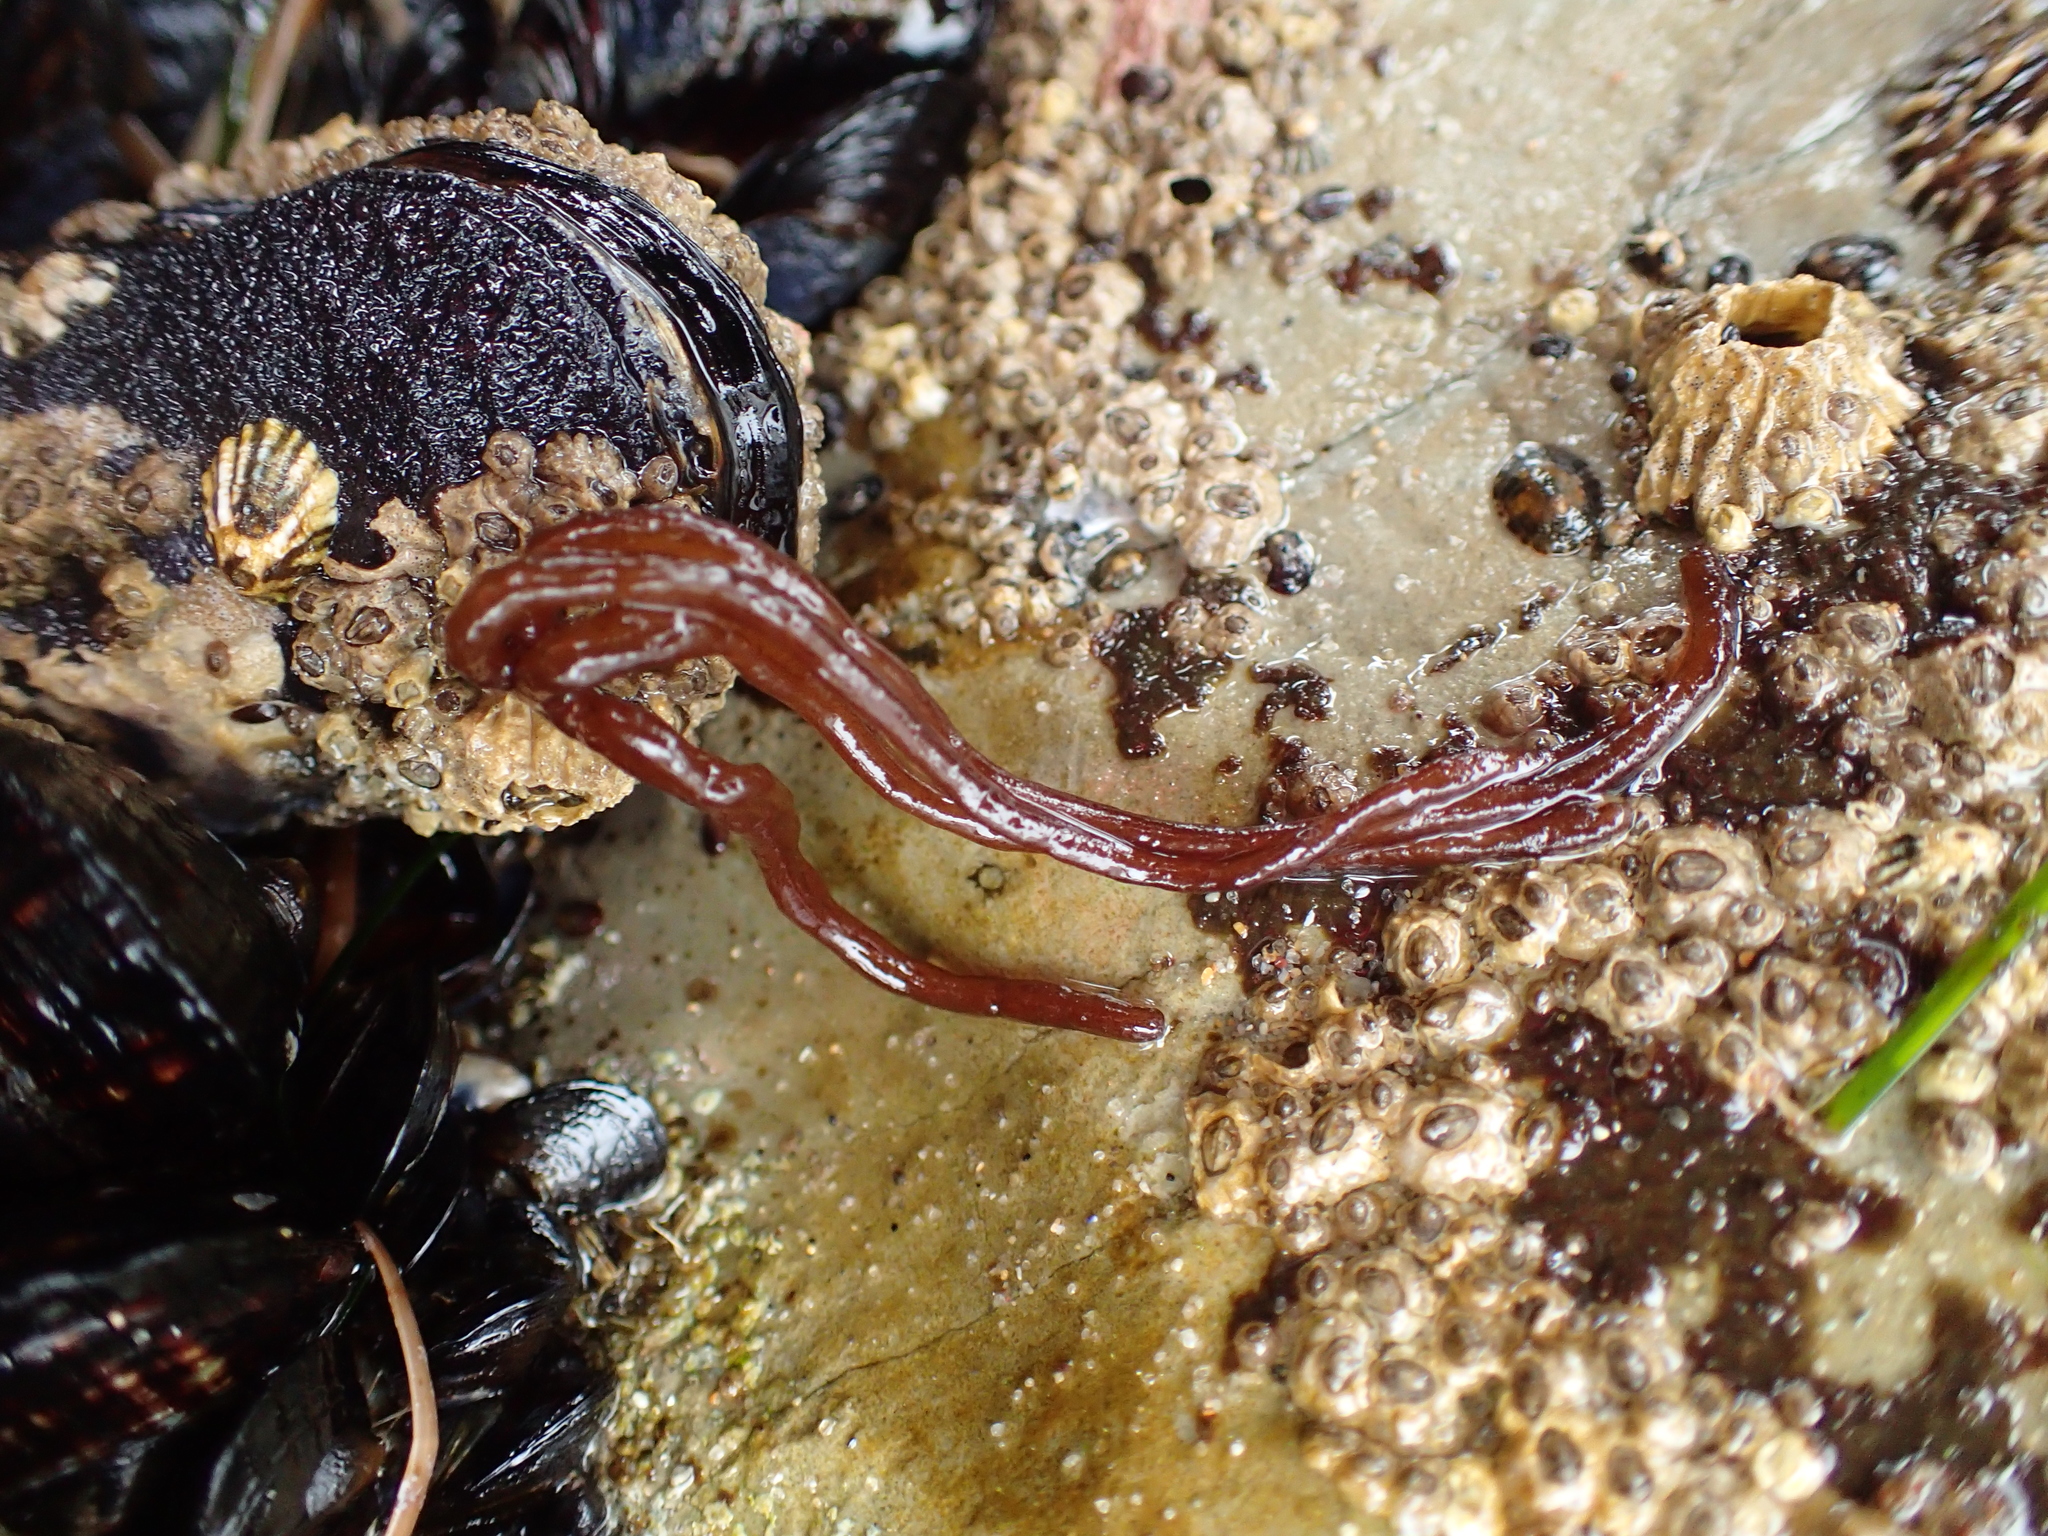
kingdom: Plantae
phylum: Rhodophyta
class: Florideophyceae
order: Nemaliales
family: Nemaliaceae
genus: Nemalion
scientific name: Nemalion elminthoides
